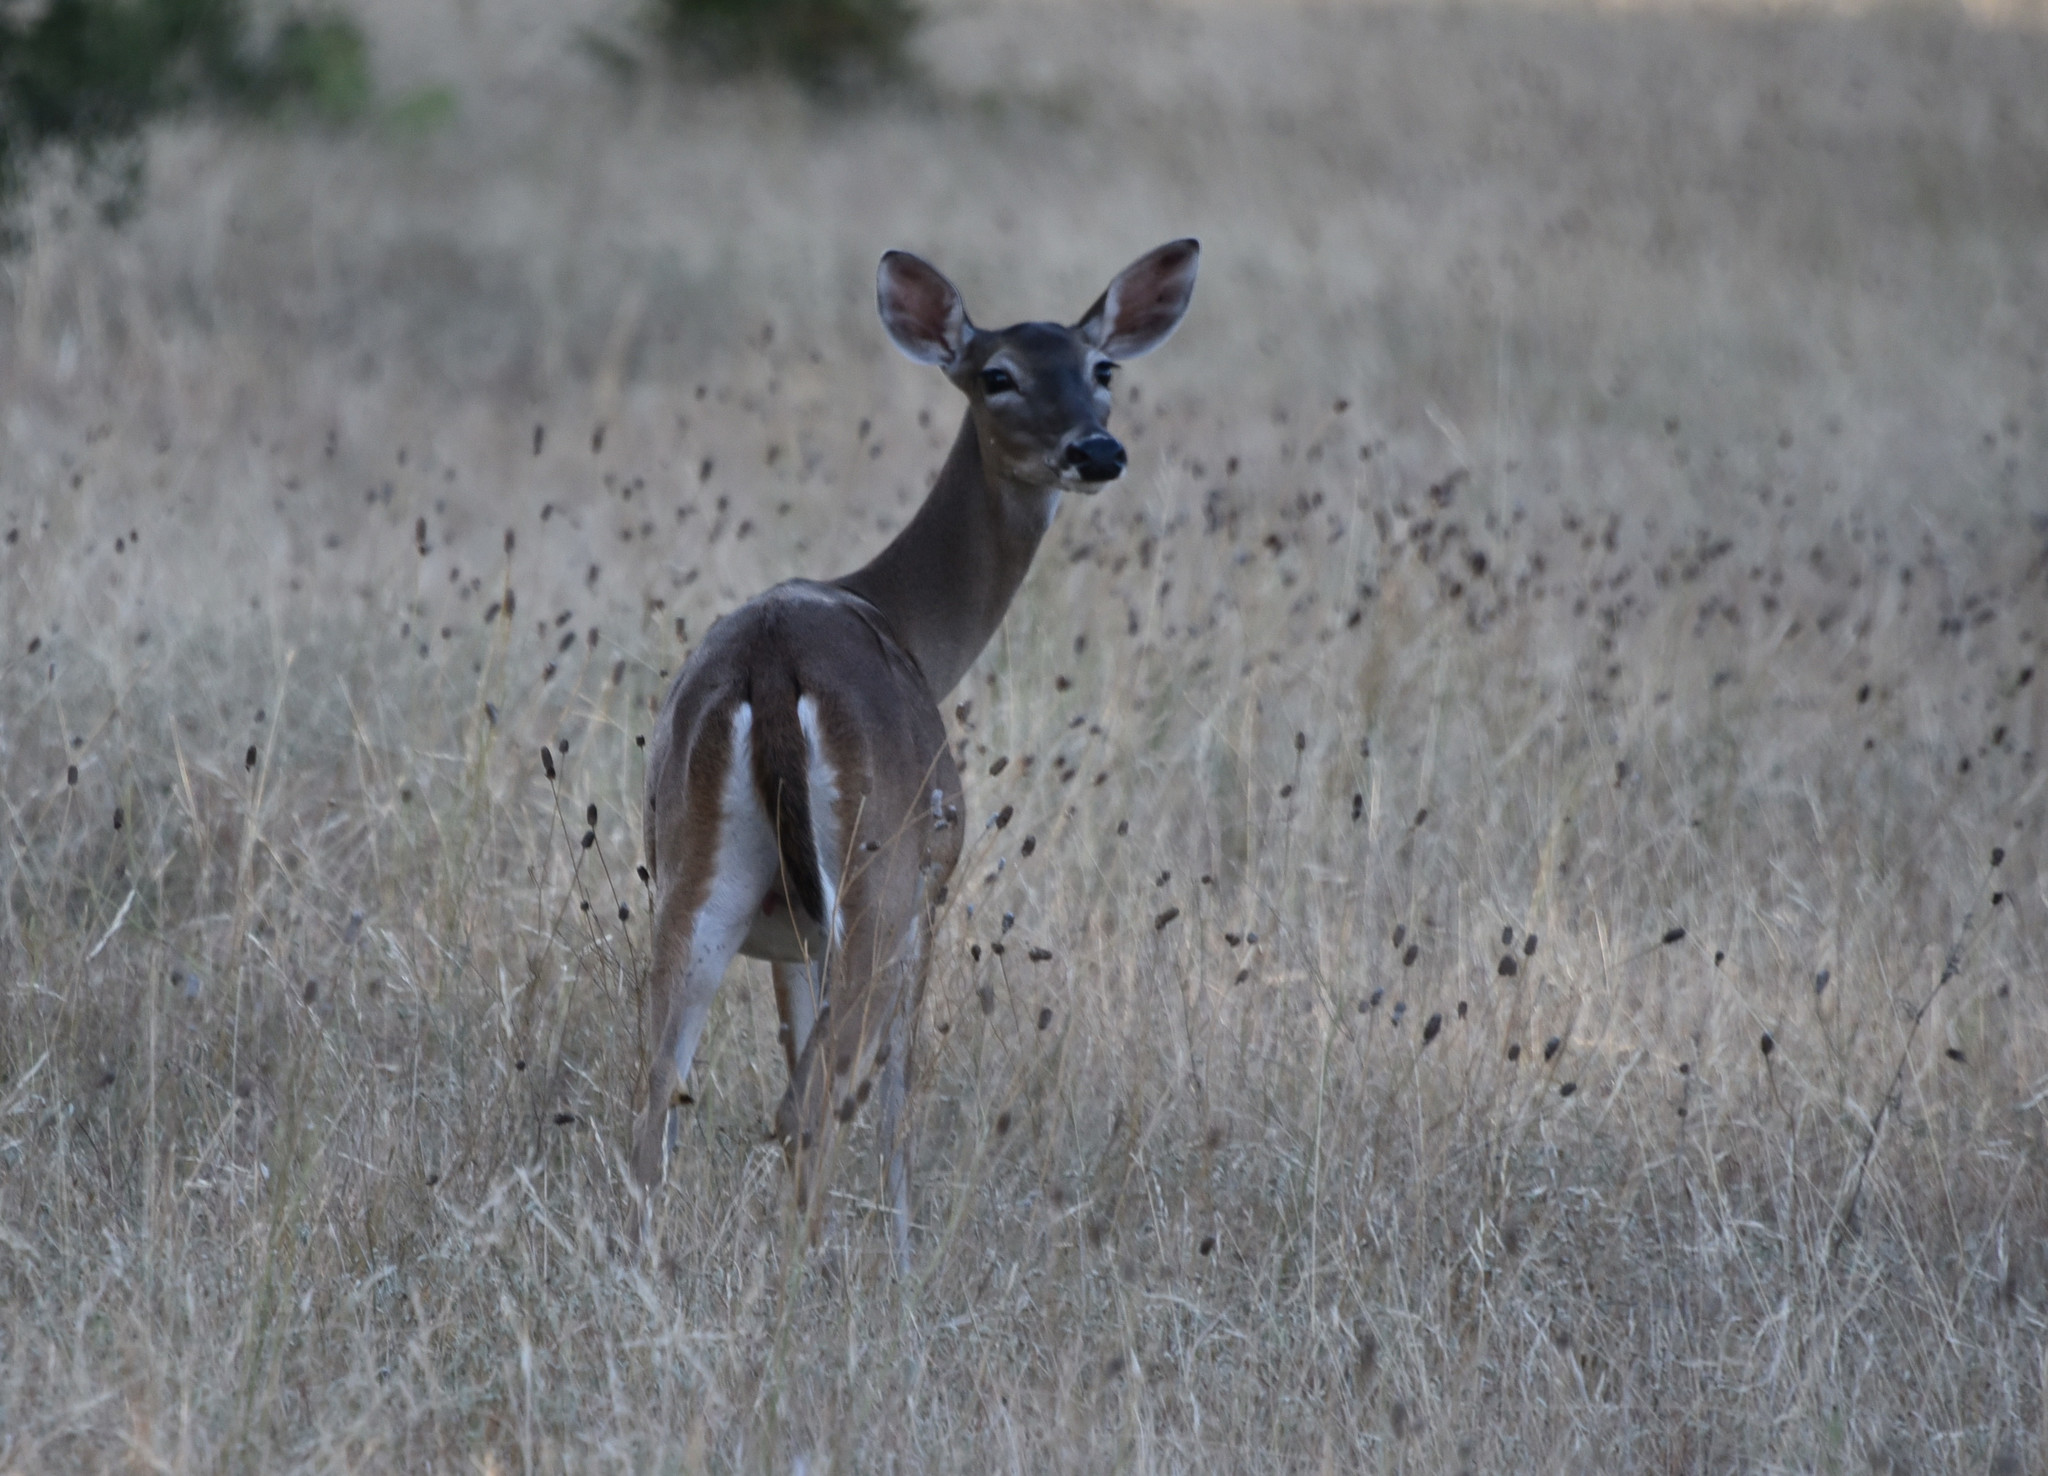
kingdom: Animalia
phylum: Chordata
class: Mammalia
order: Artiodactyla
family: Cervidae
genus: Odocoileus
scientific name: Odocoileus virginianus
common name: White-tailed deer
